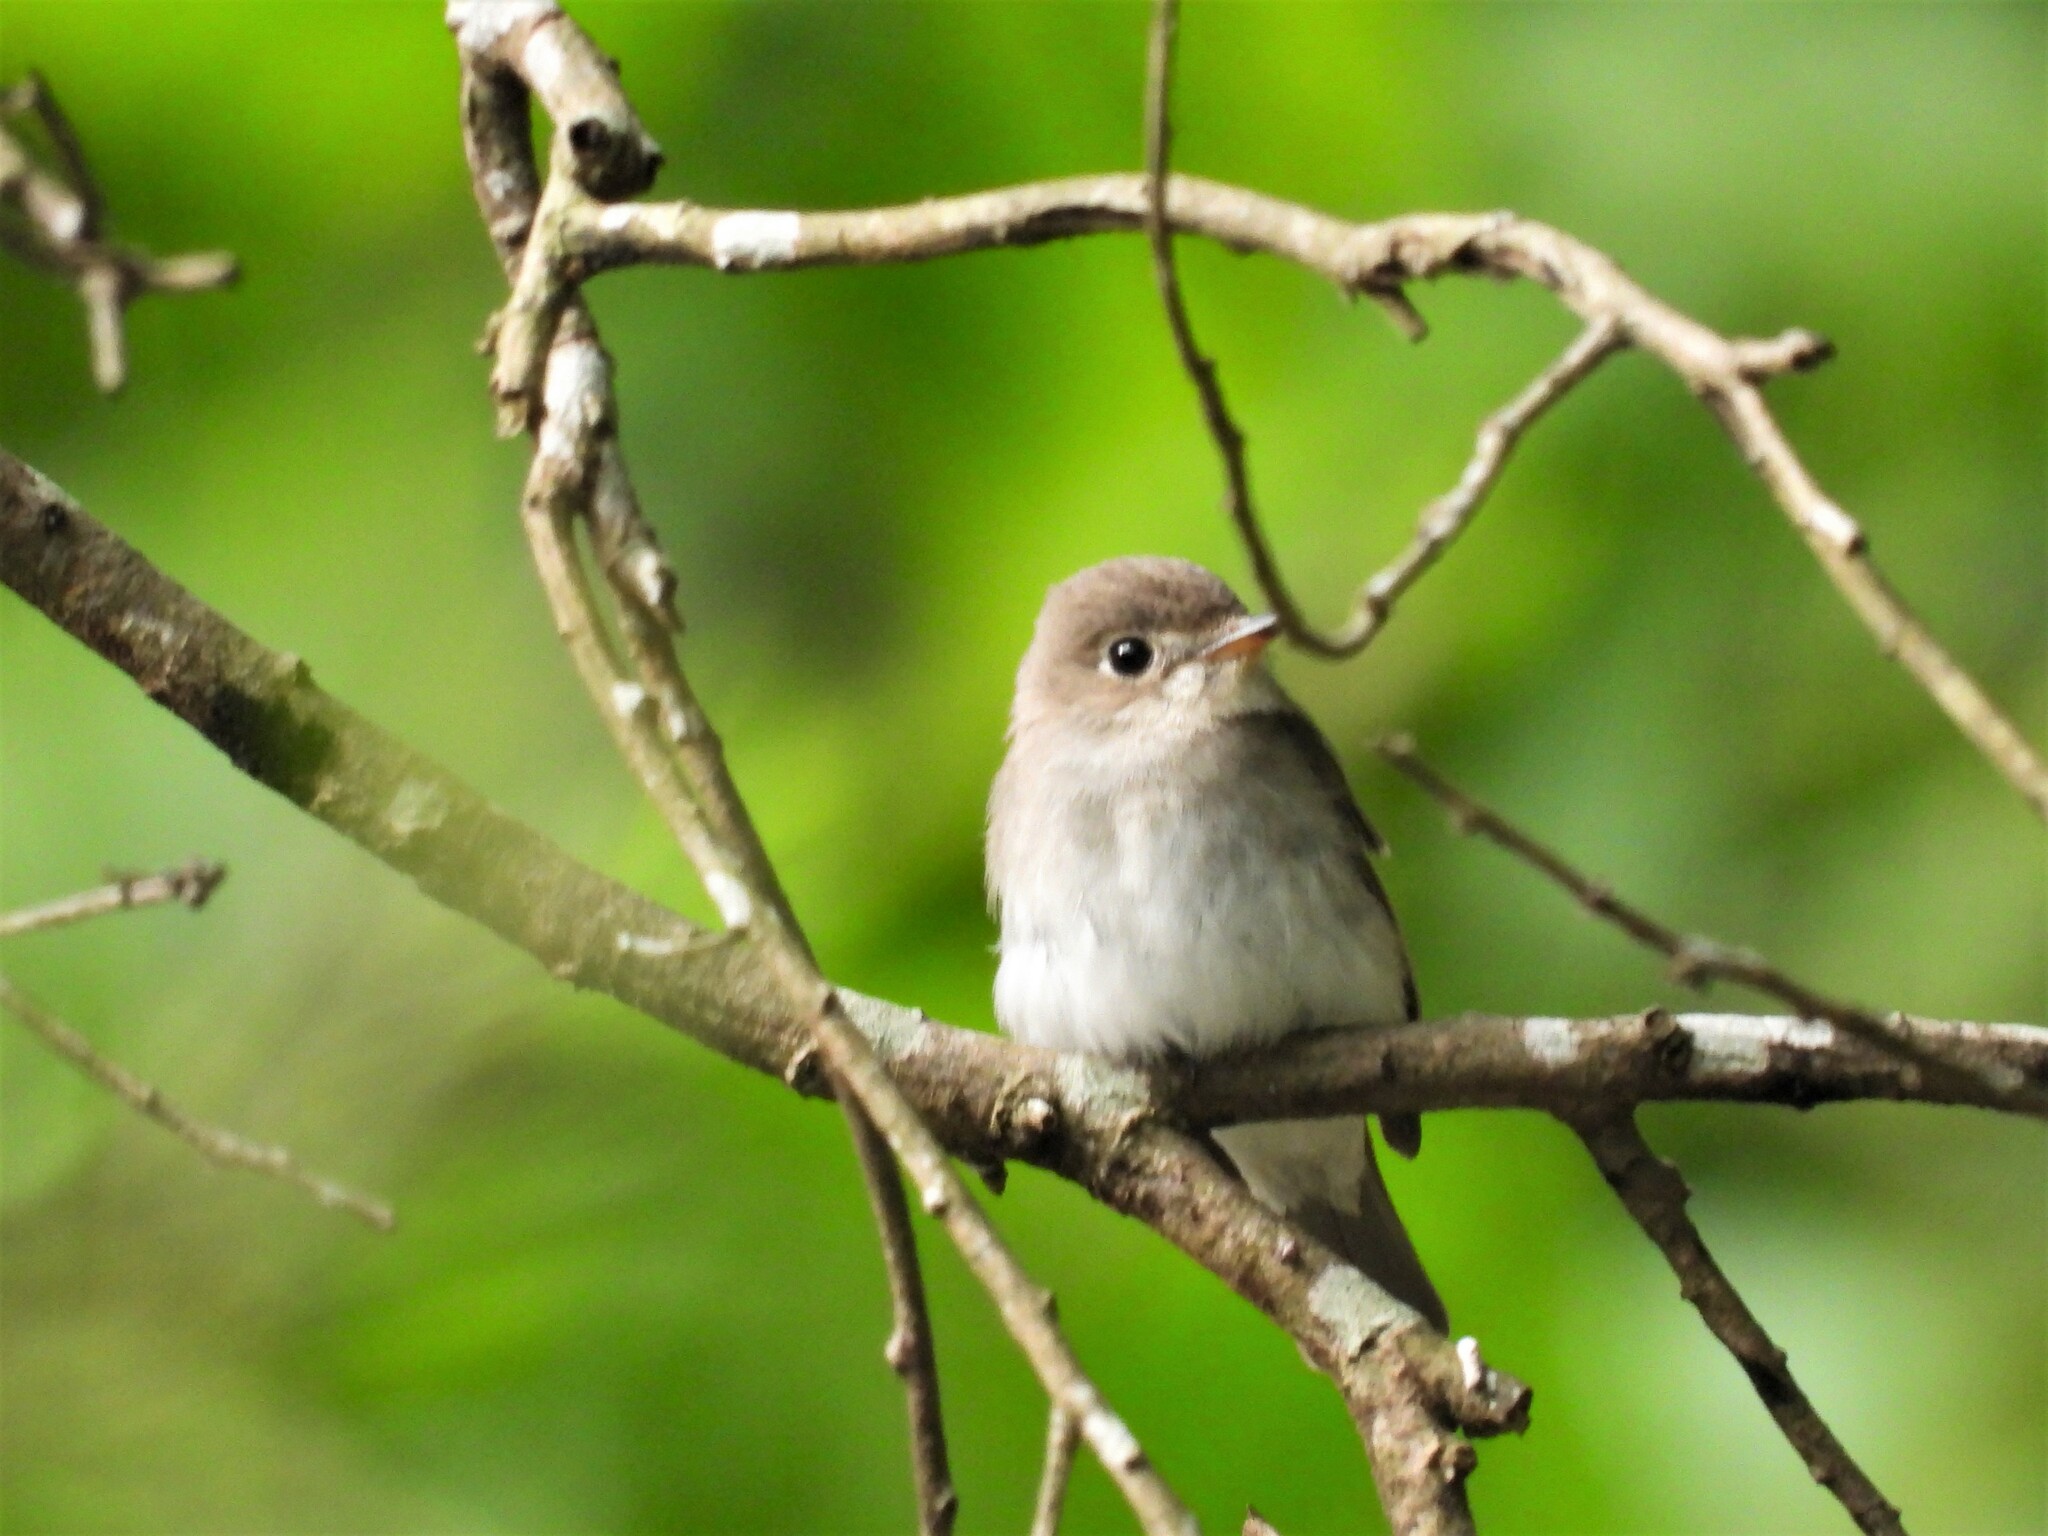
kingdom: Animalia
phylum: Chordata
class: Aves
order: Passeriformes
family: Muscicapidae
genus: Muscicapa
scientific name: Muscicapa latirostris
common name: Asian brown flycatcher
